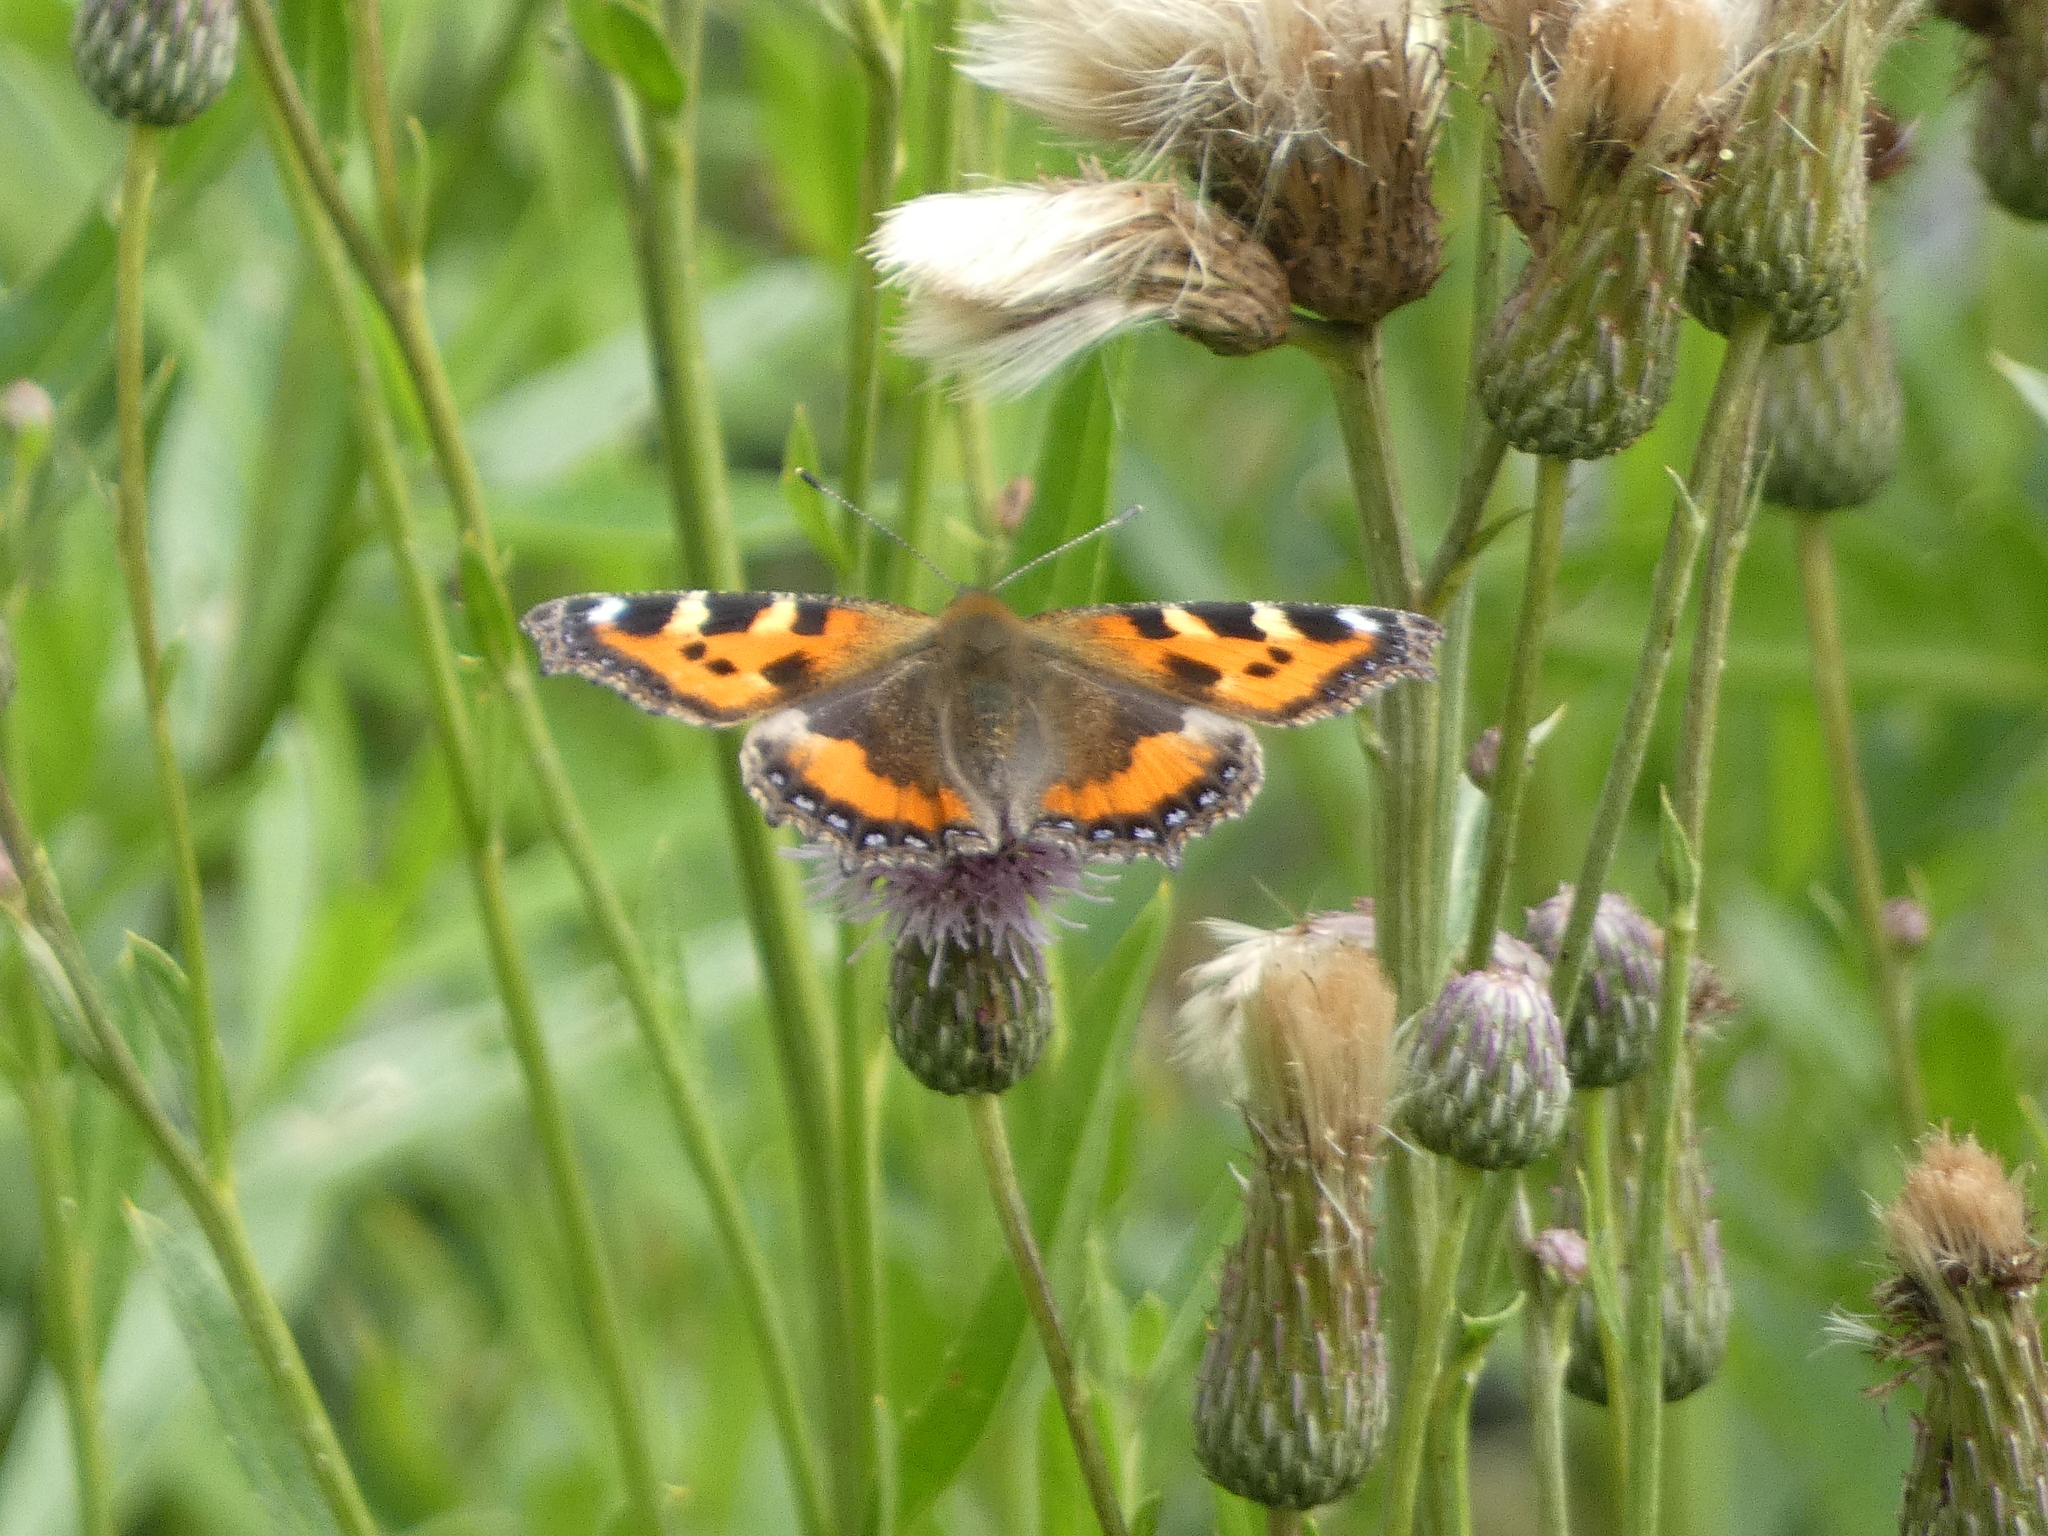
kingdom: Animalia
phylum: Arthropoda
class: Insecta
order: Lepidoptera
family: Nymphalidae
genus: Aglais
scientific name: Aglais urticae
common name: Small tortoiseshell
